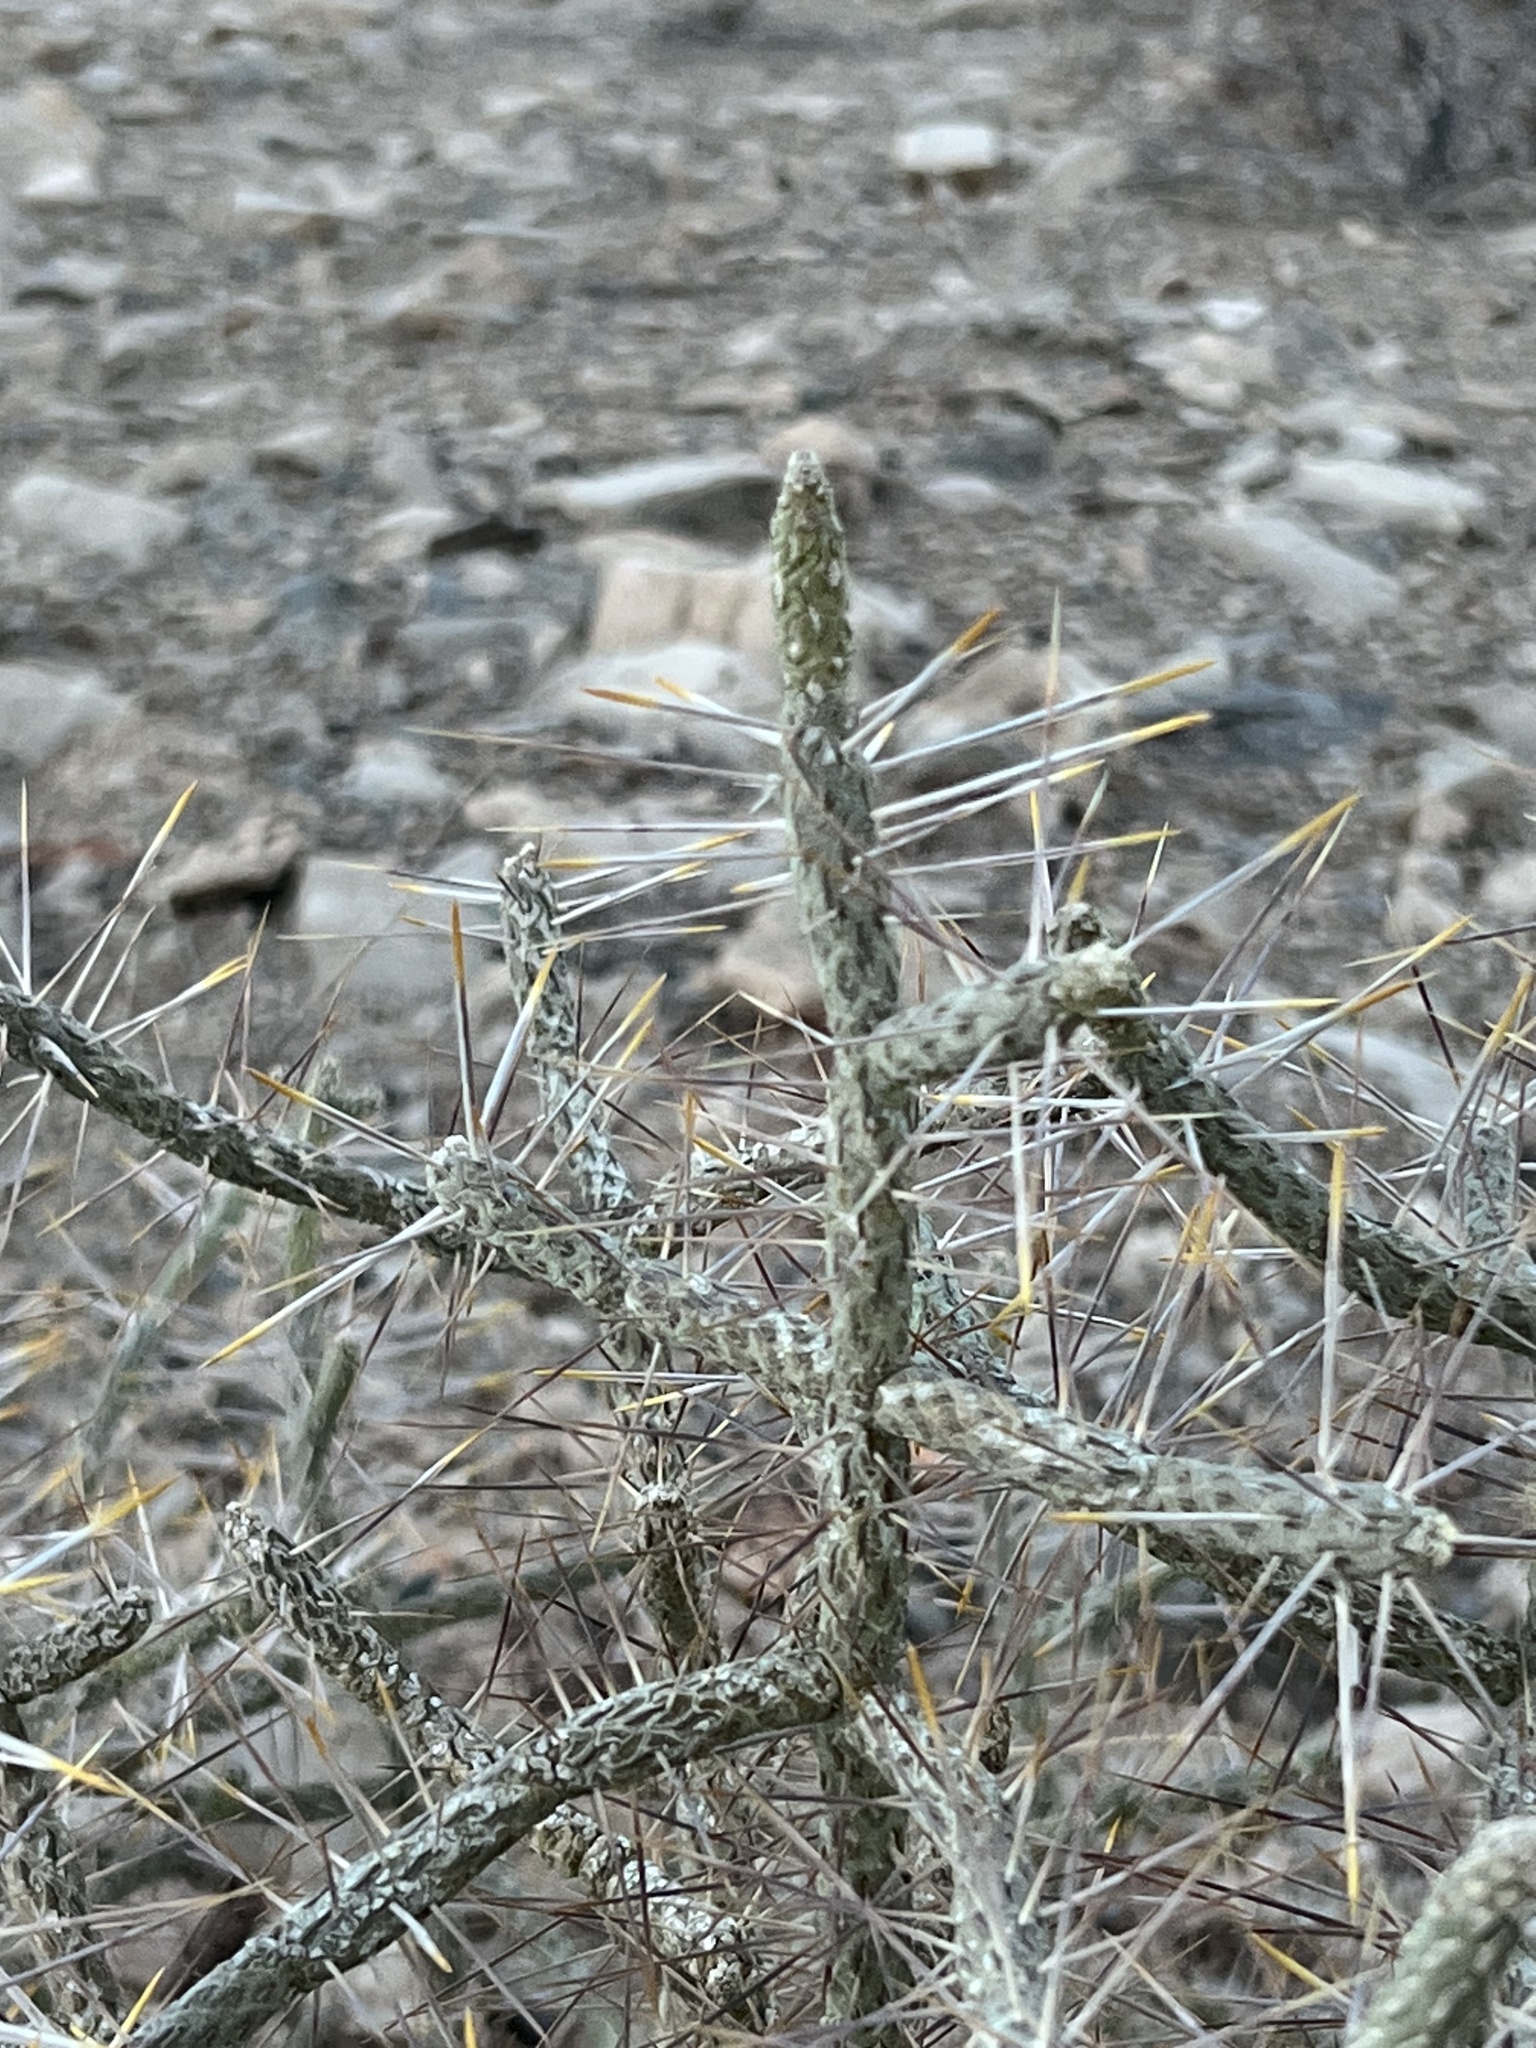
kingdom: Plantae
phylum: Tracheophyta
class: Magnoliopsida
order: Caryophyllales
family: Cactaceae
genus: Cylindropuntia
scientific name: Cylindropuntia ramosissima
